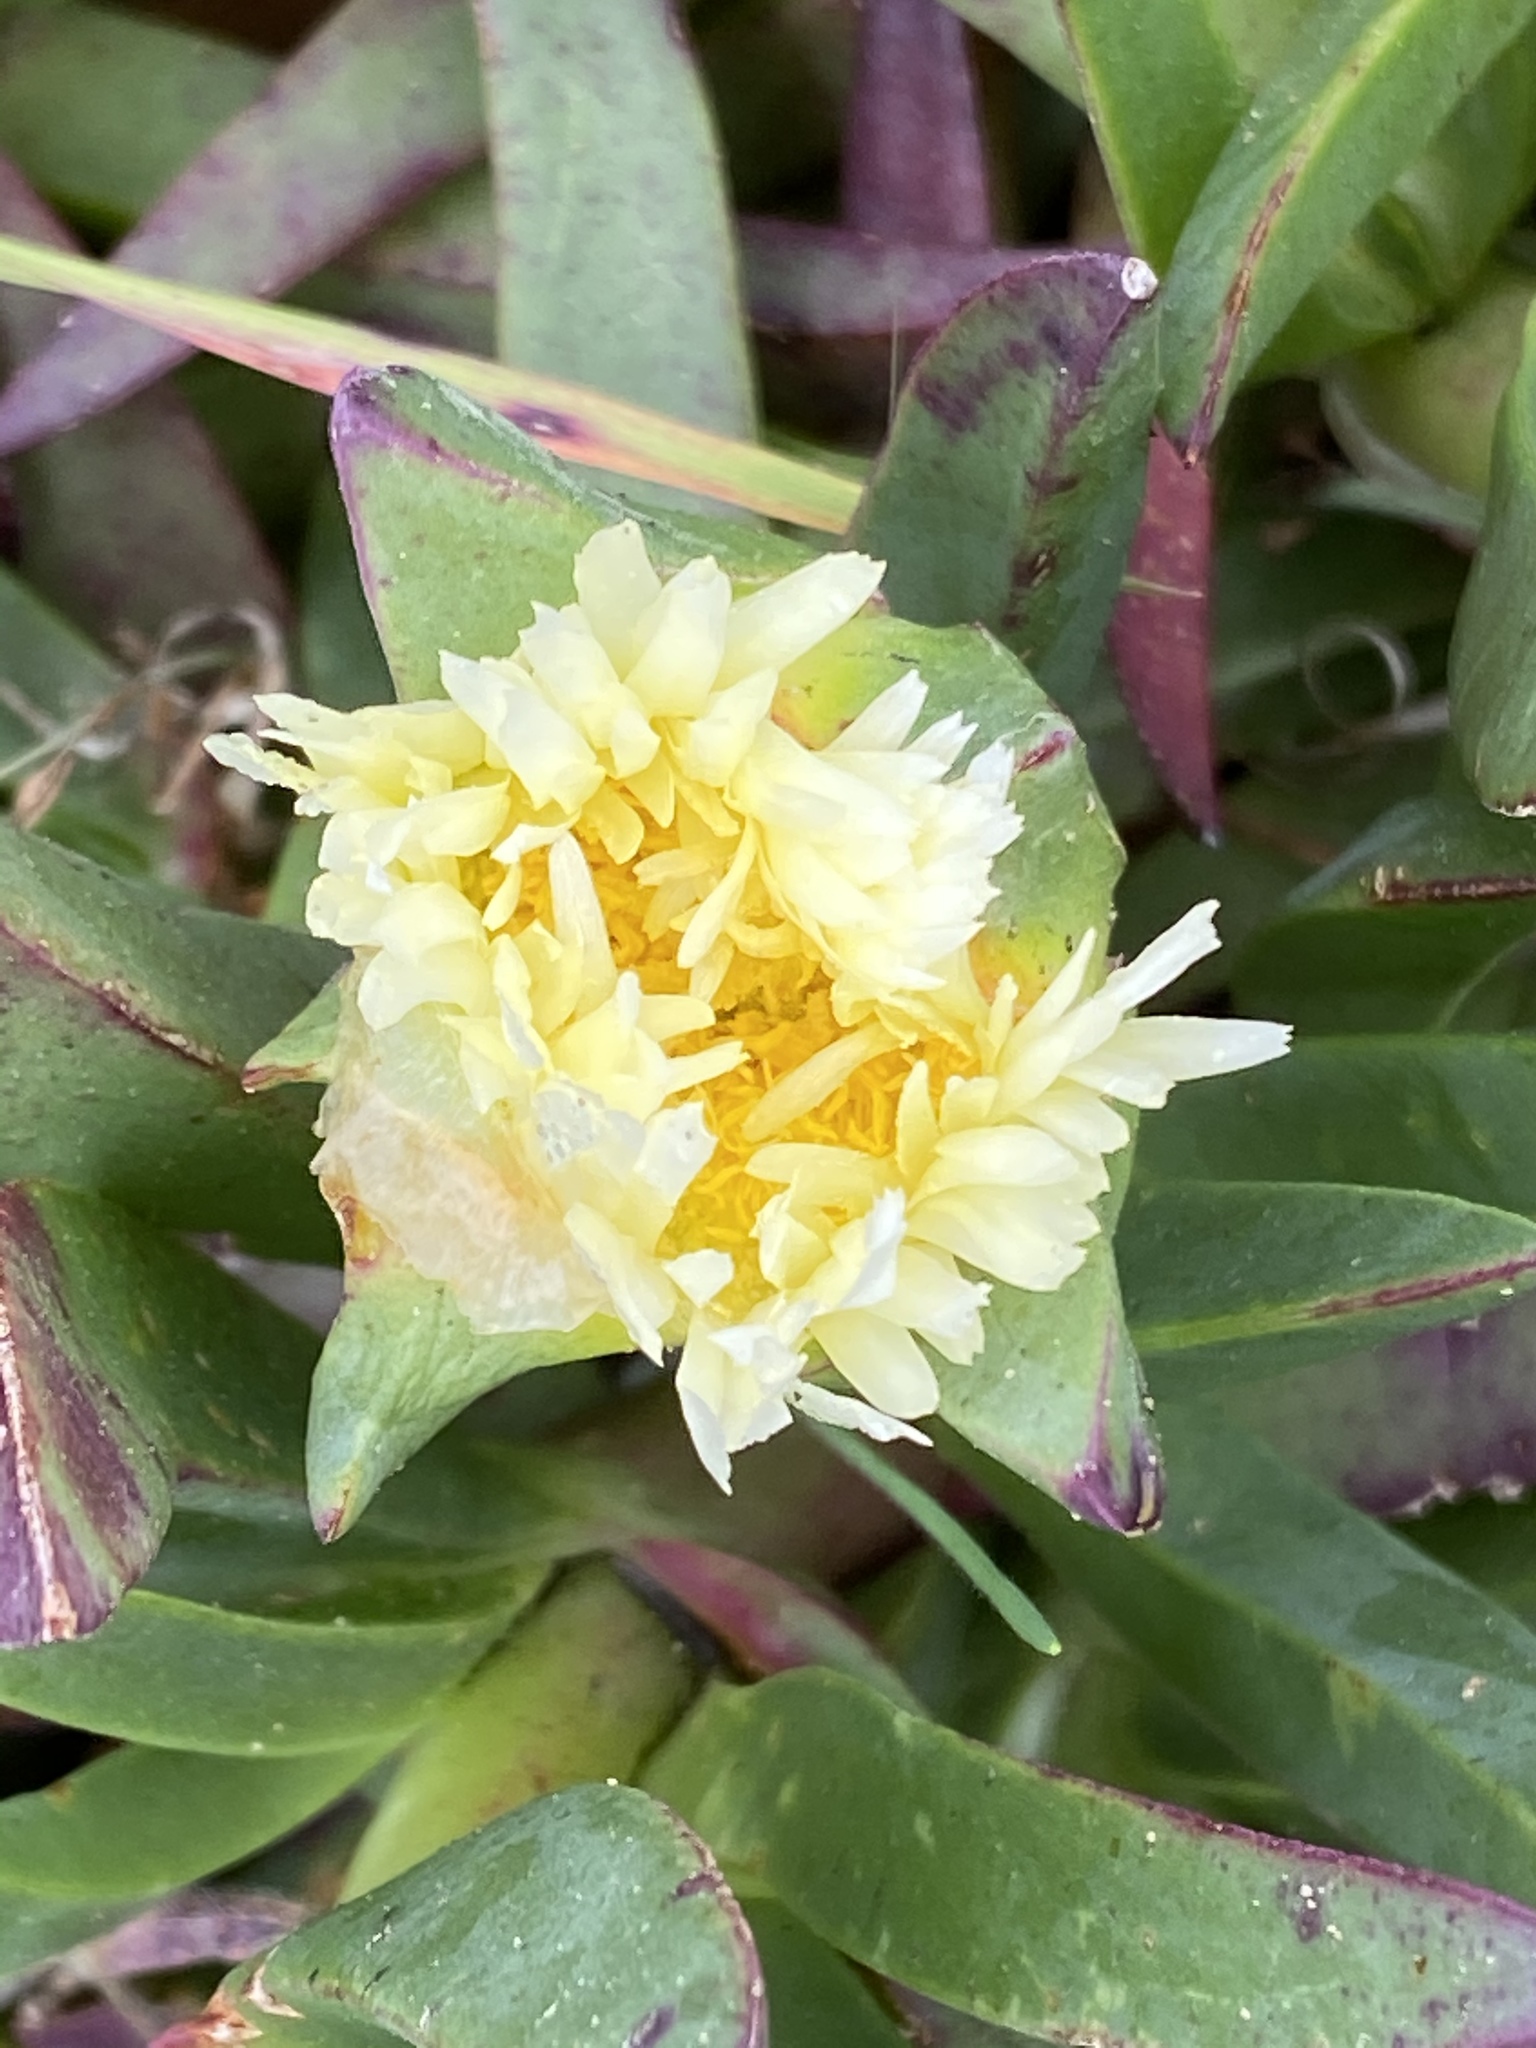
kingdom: Plantae
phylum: Tracheophyta
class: Magnoliopsida
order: Caryophyllales
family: Aizoaceae
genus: Carpobrotus
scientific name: Carpobrotus edulis
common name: Hottentot-fig
